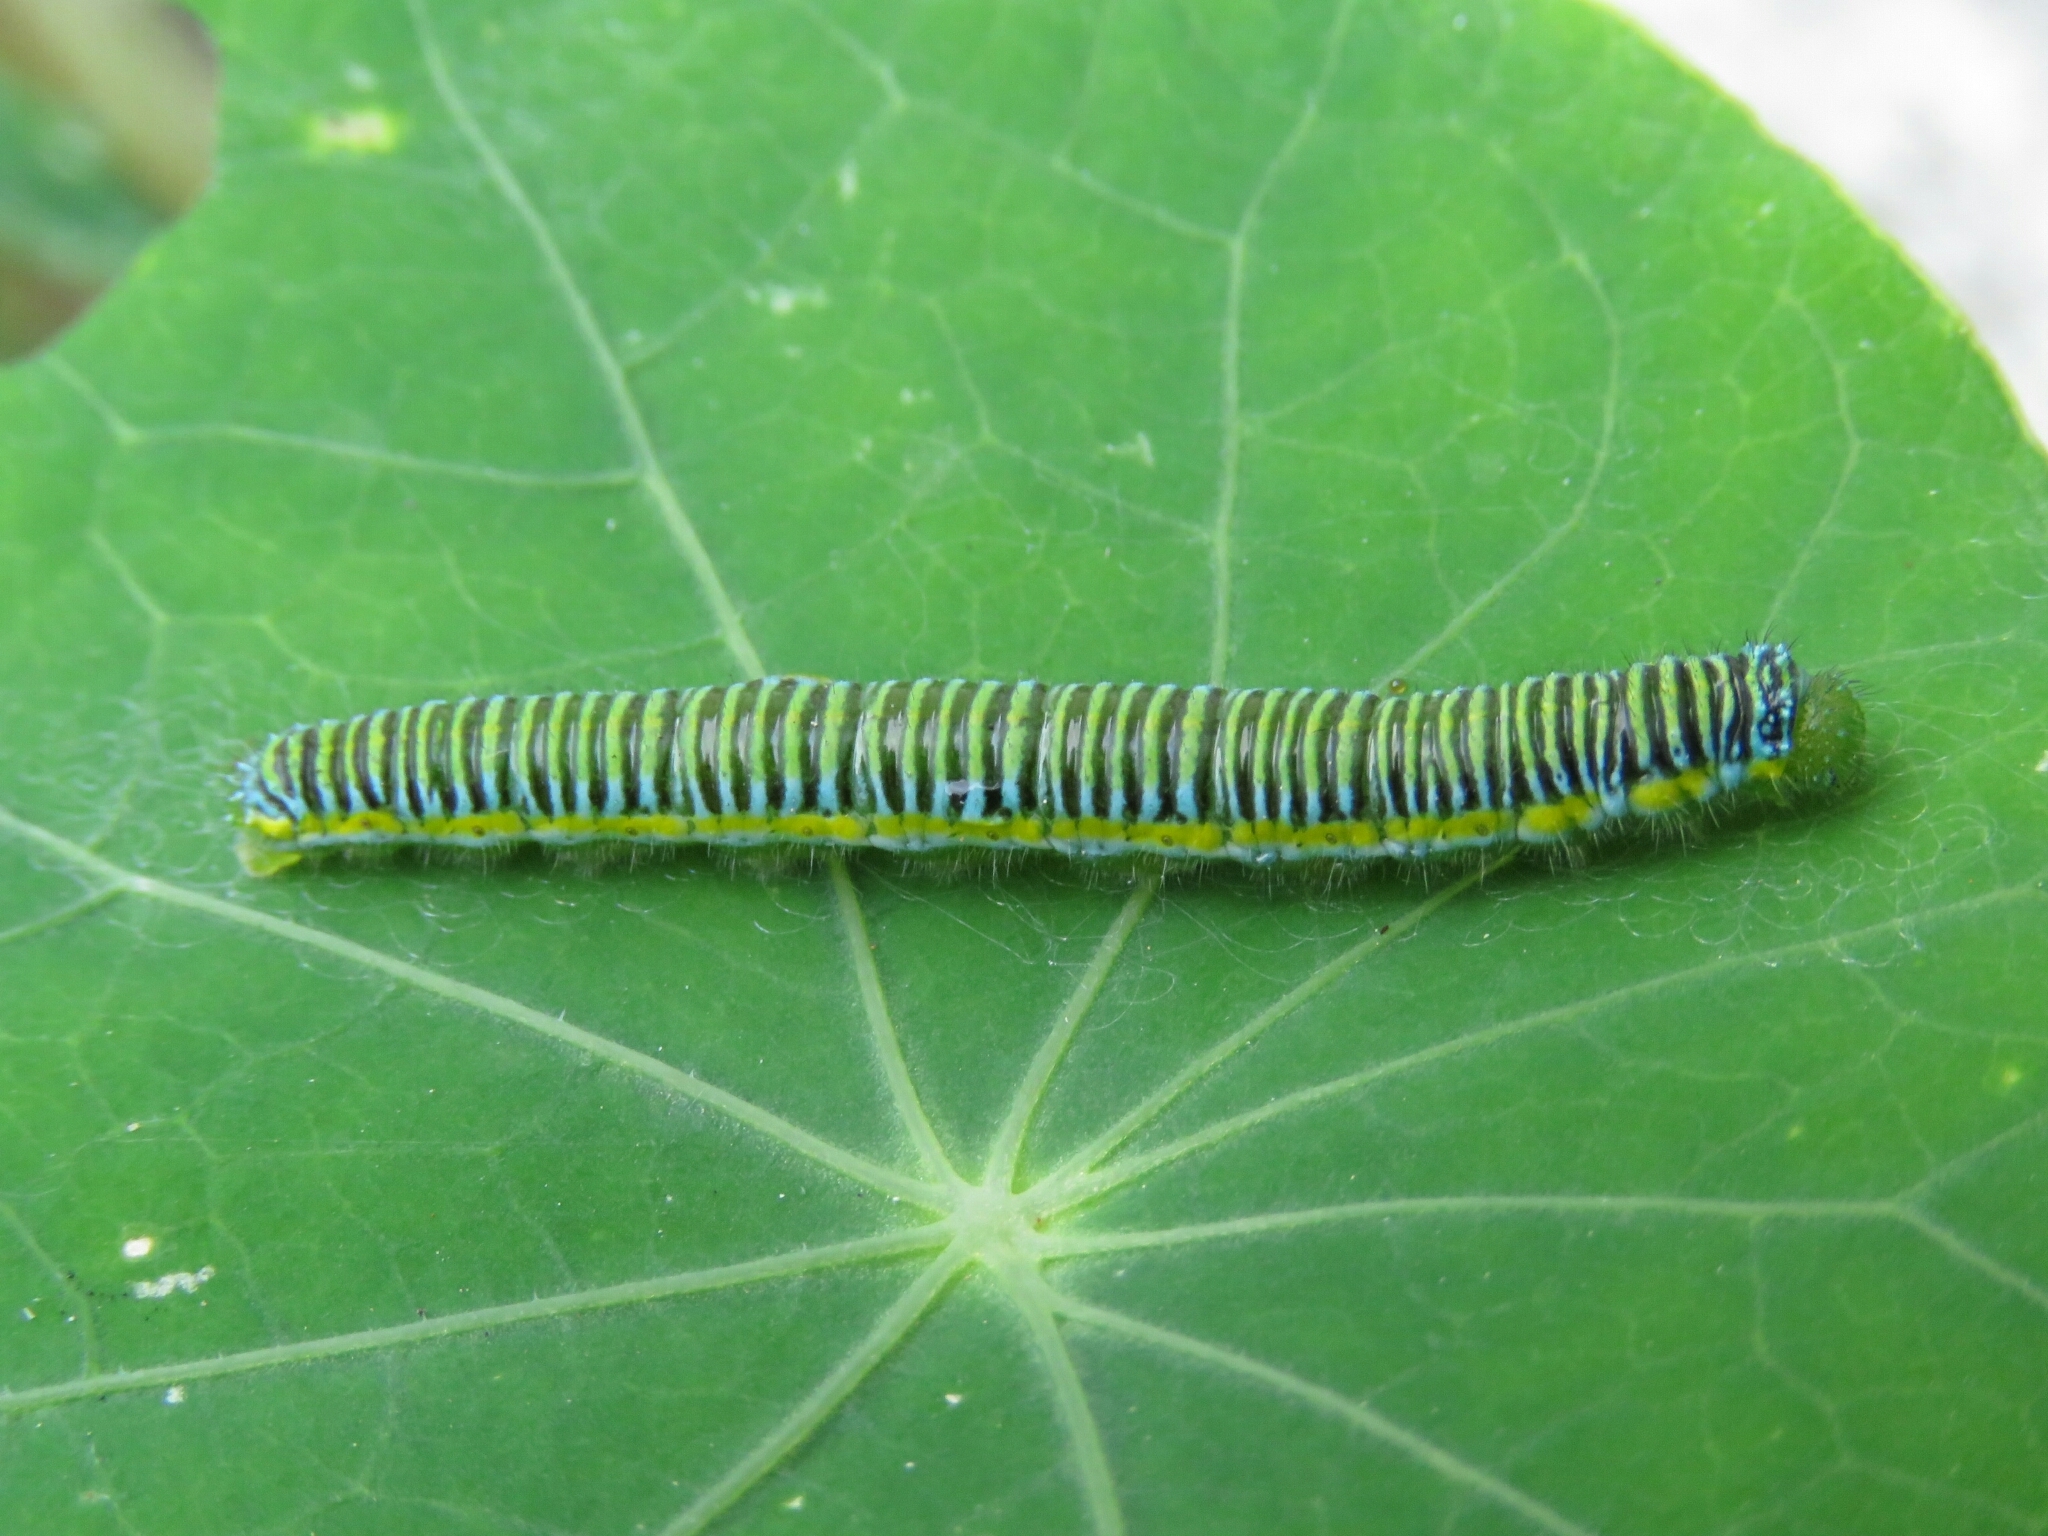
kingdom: Animalia
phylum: Arthropoda
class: Insecta
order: Lepidoptera
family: Pieridae
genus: Leptophobia
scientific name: Leptophobia aripa
